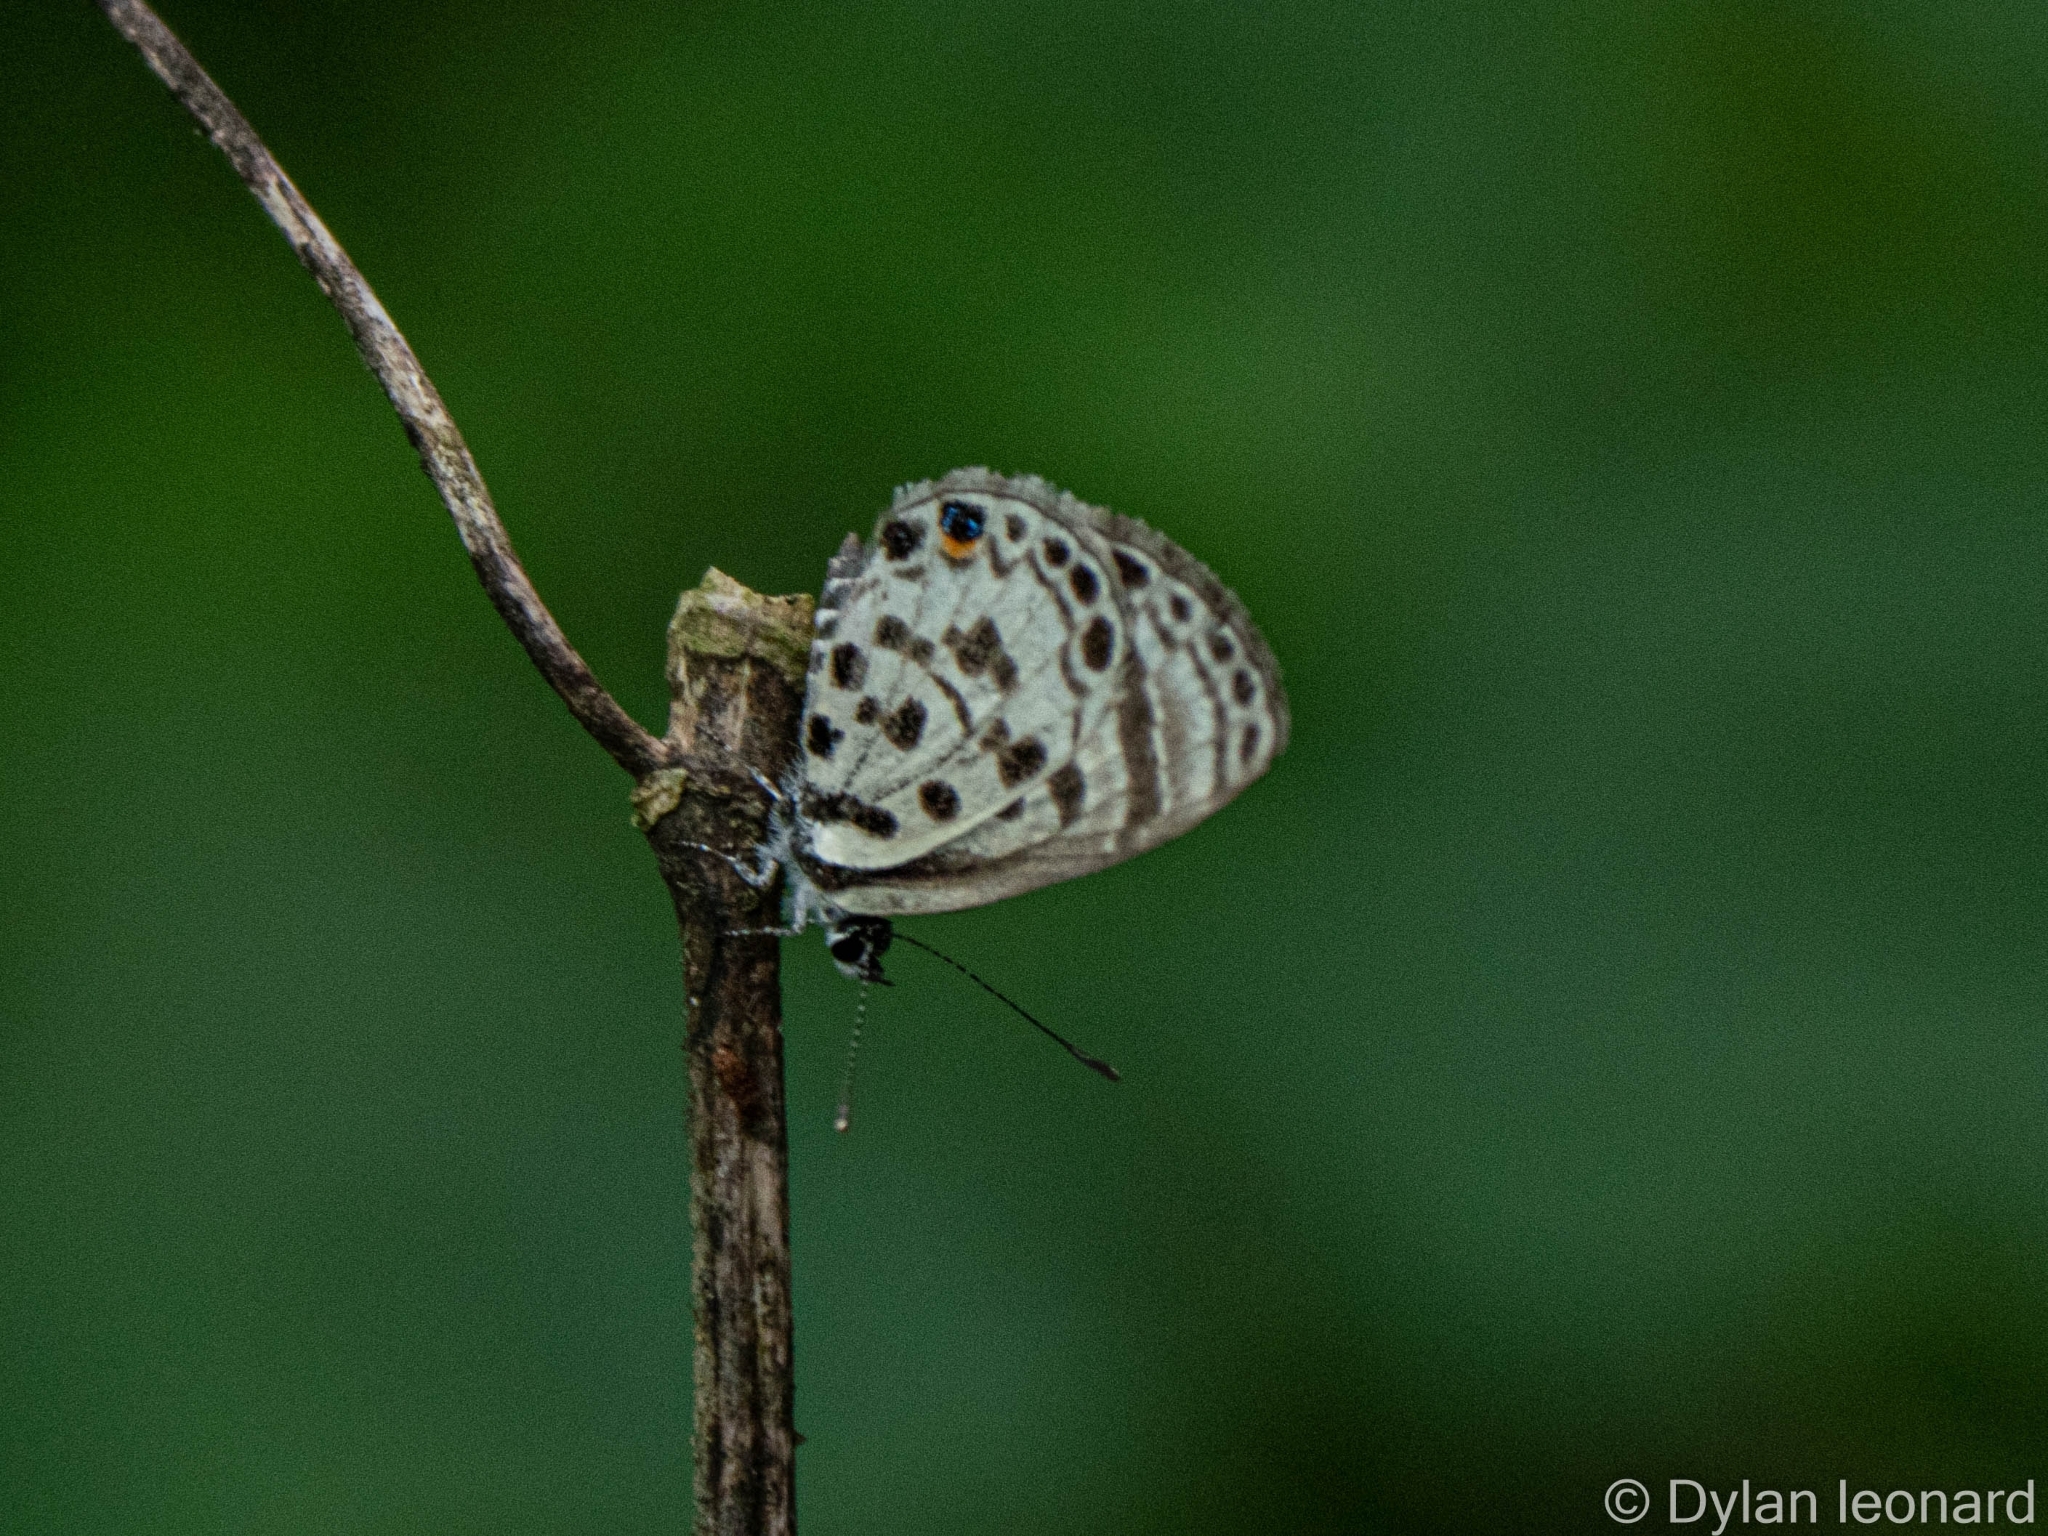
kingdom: Animalia
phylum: Arthropoda
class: Insecta
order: Lepidoptera
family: Lycaenidae
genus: Azanus
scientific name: Azanus mirza
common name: Mirza babul blue
